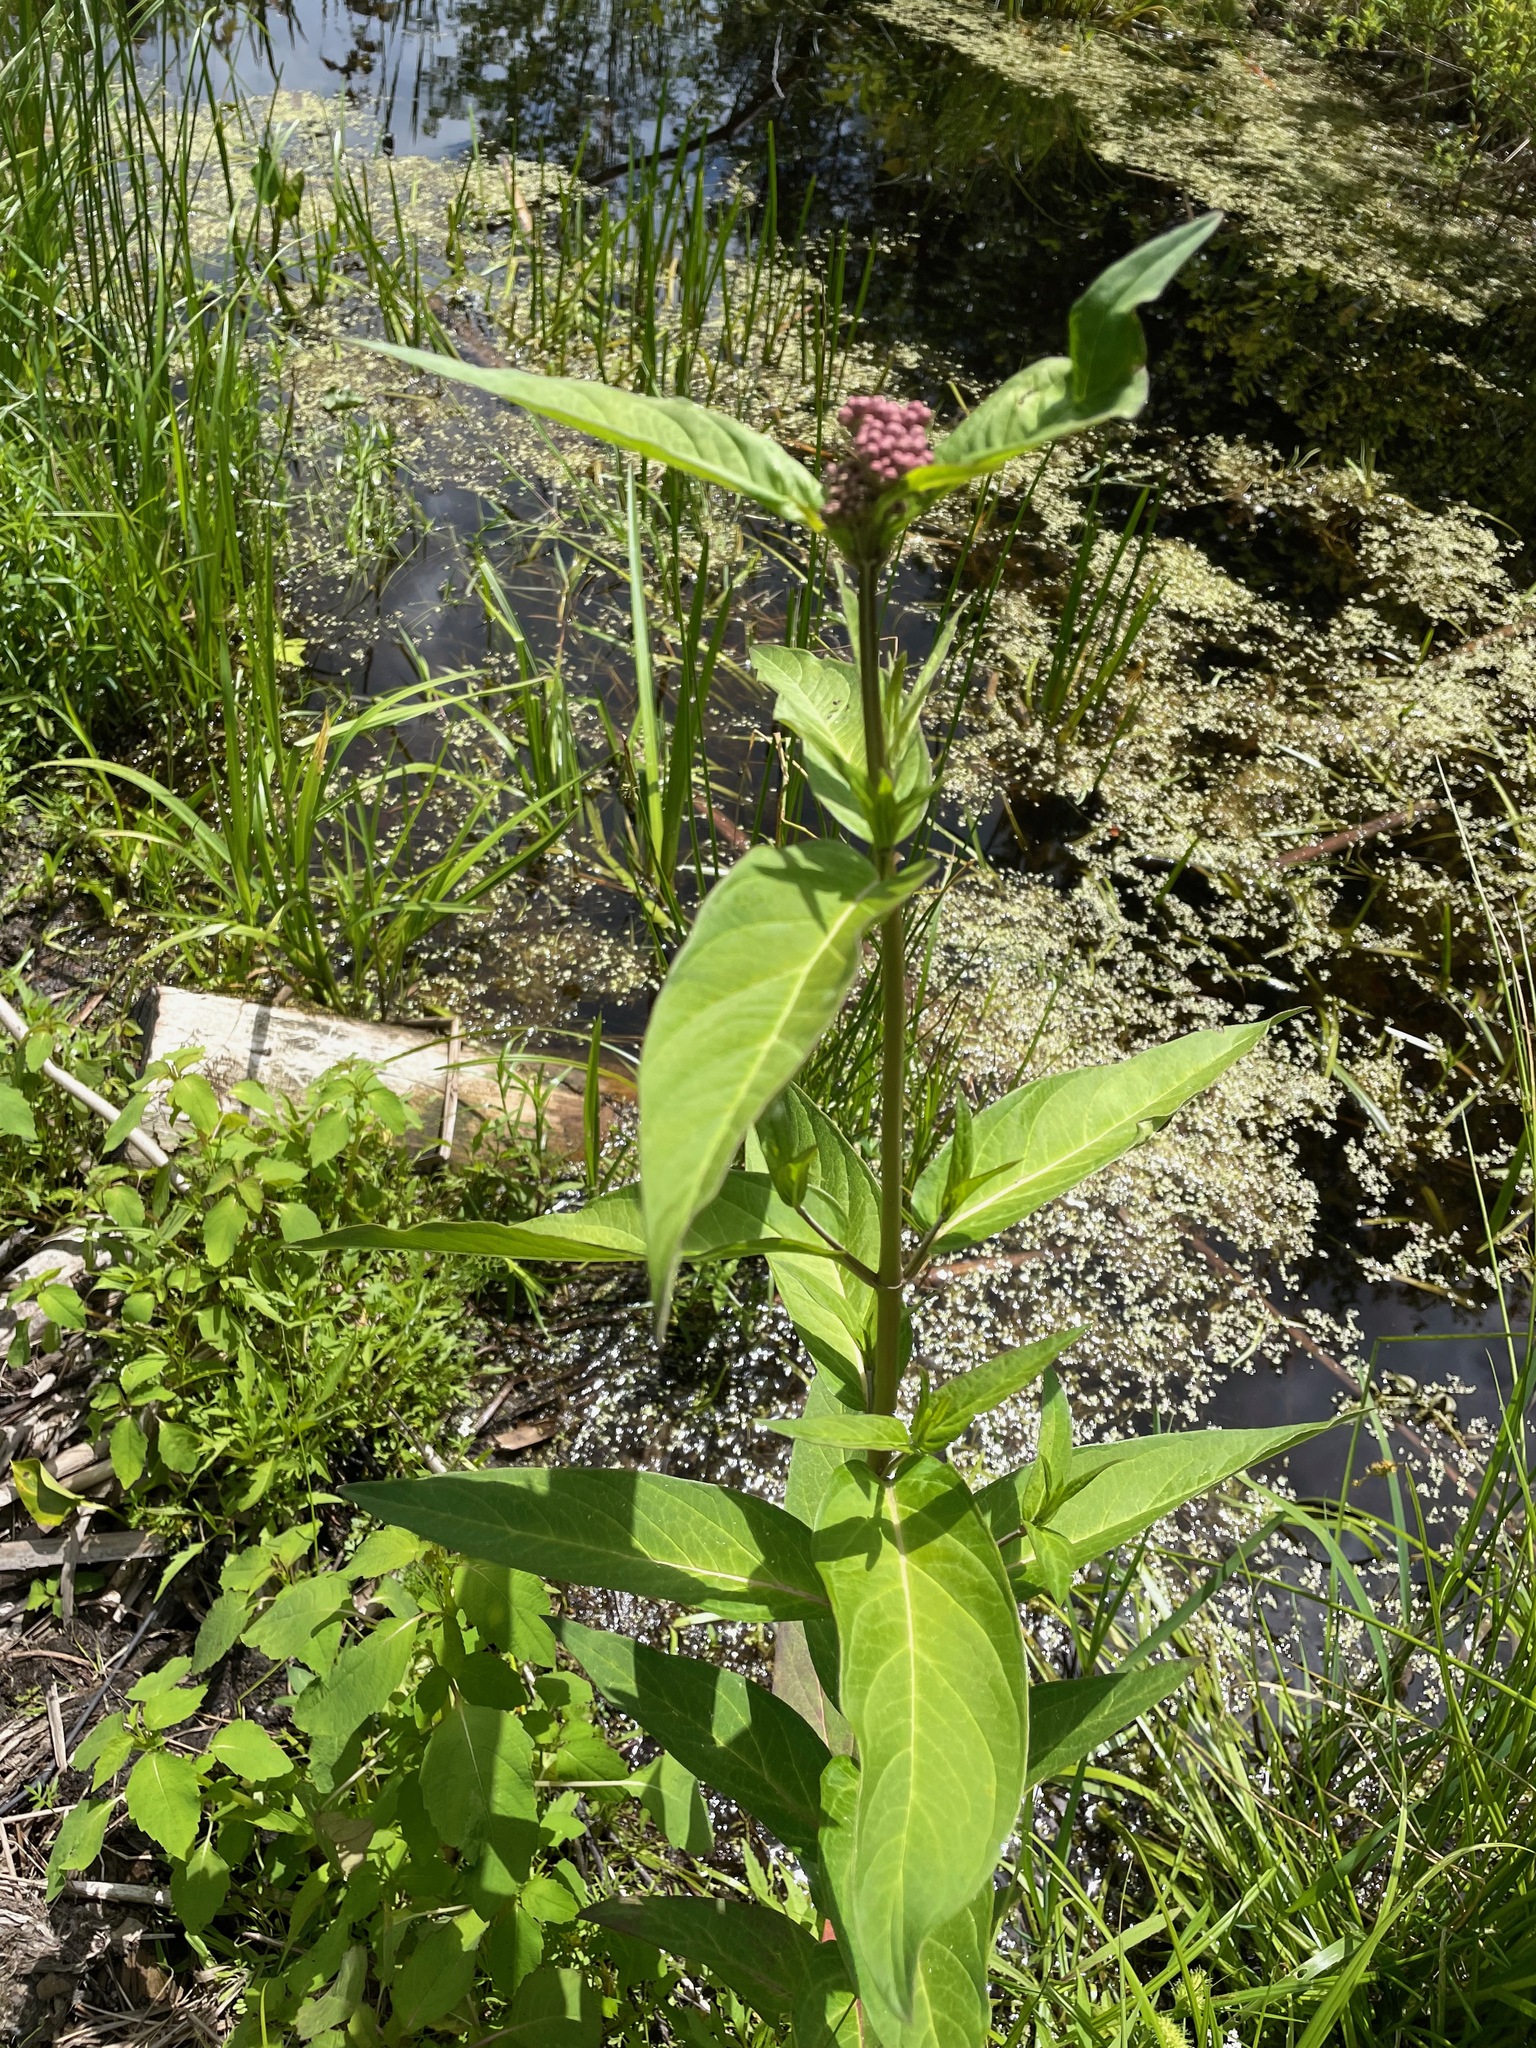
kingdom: Plantae
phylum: Tracheophyta
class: Magnoliopsida
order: Gentianales
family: Apocynaceae
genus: Asclepias
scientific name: Asclepias incarnata
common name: Swamp milkweed
